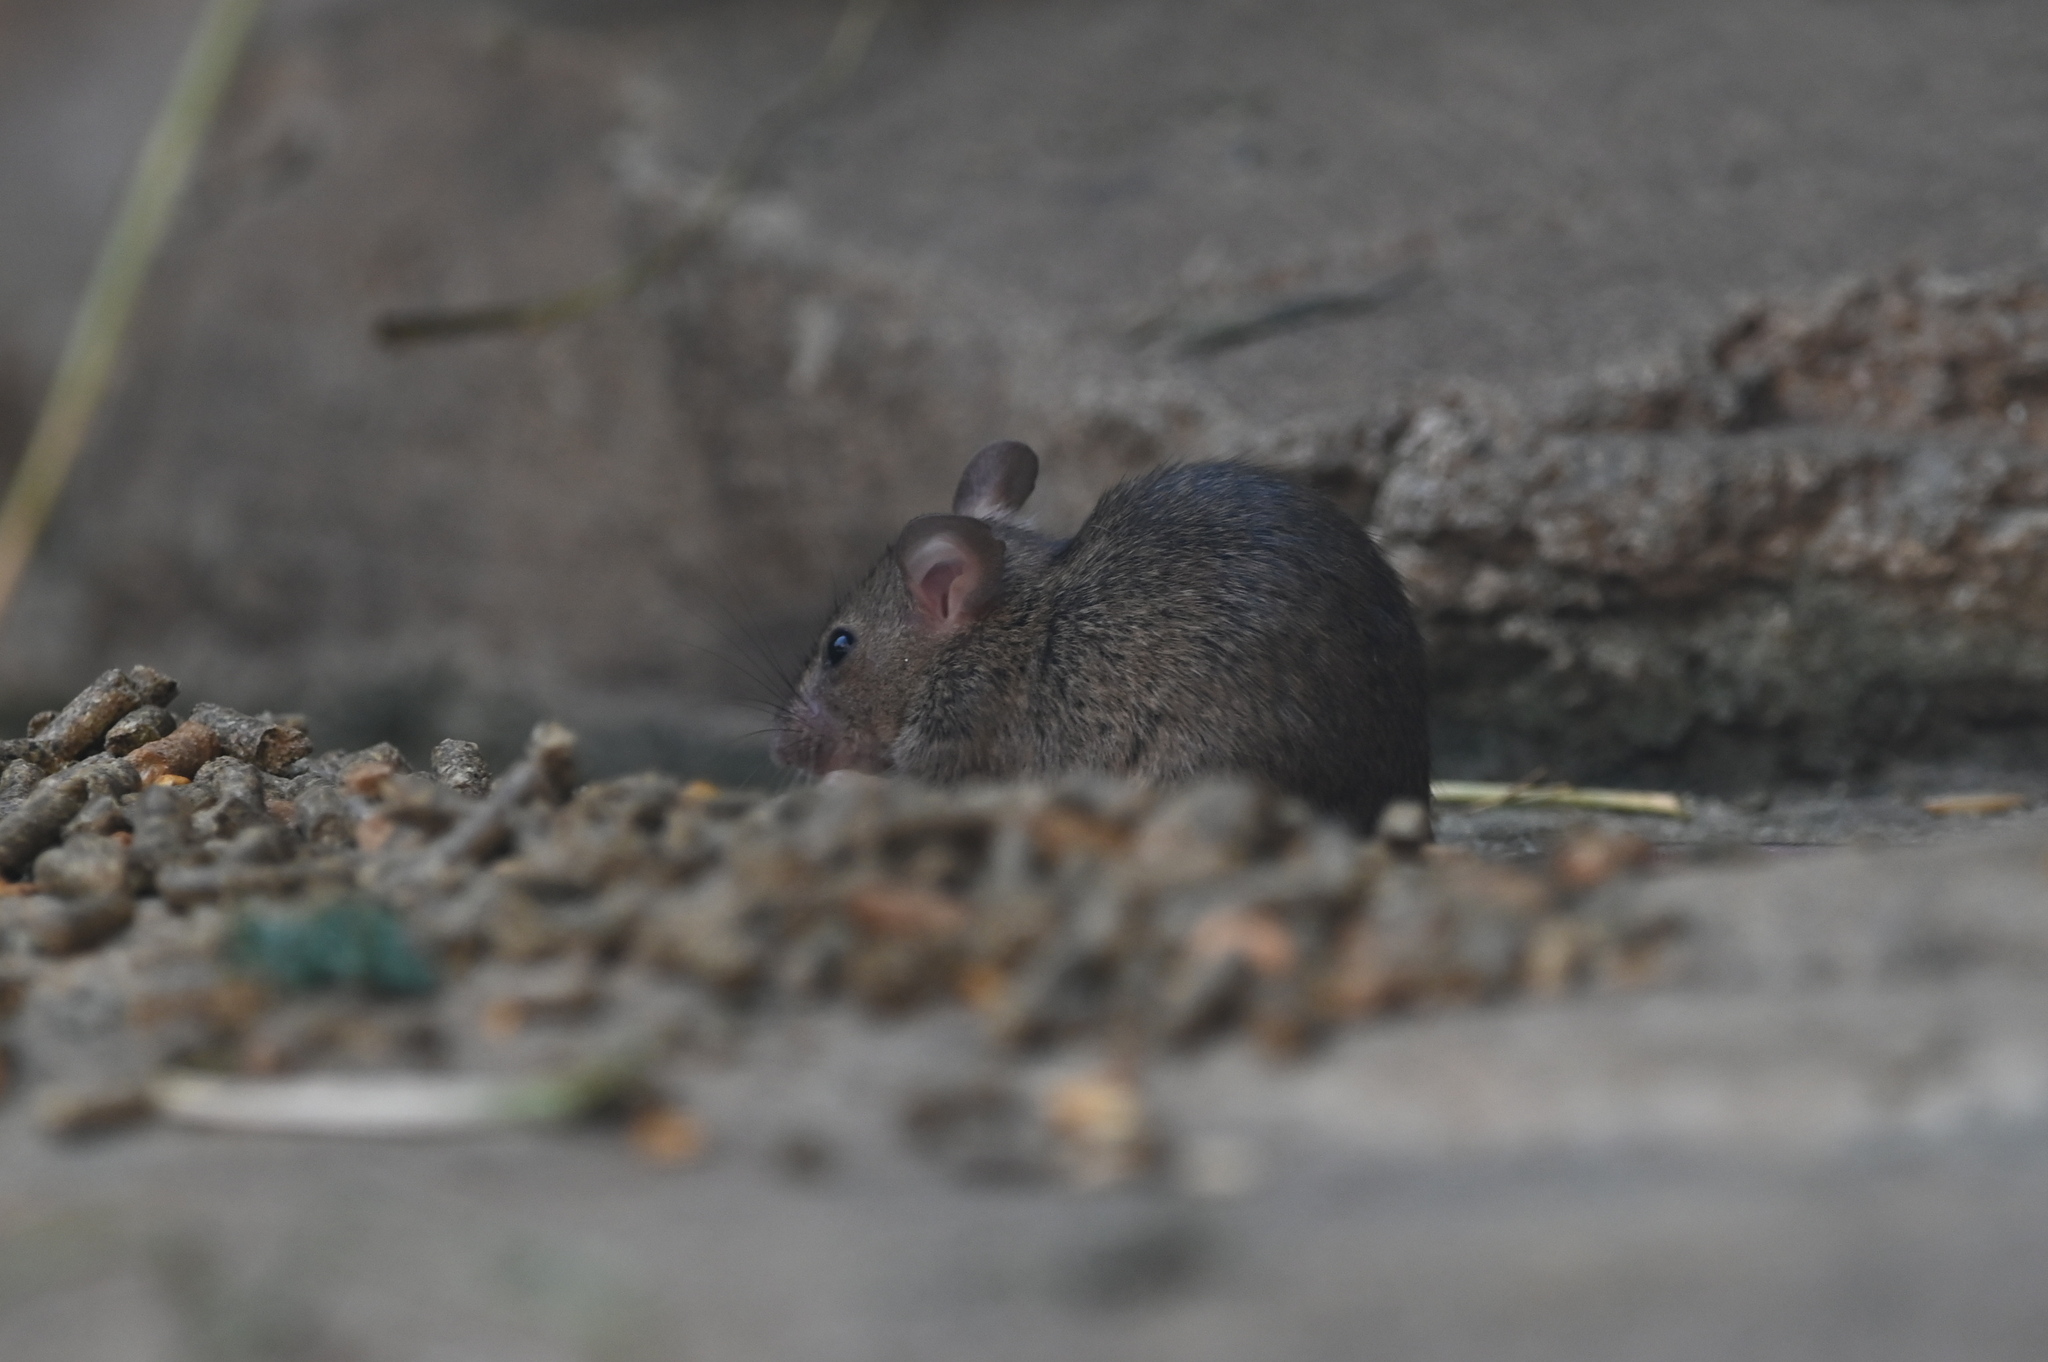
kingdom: Animalia
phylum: Chordata
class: Mammalia
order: Rodentia
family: Muridae
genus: Mus
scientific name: Mus musculus
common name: House mouse
